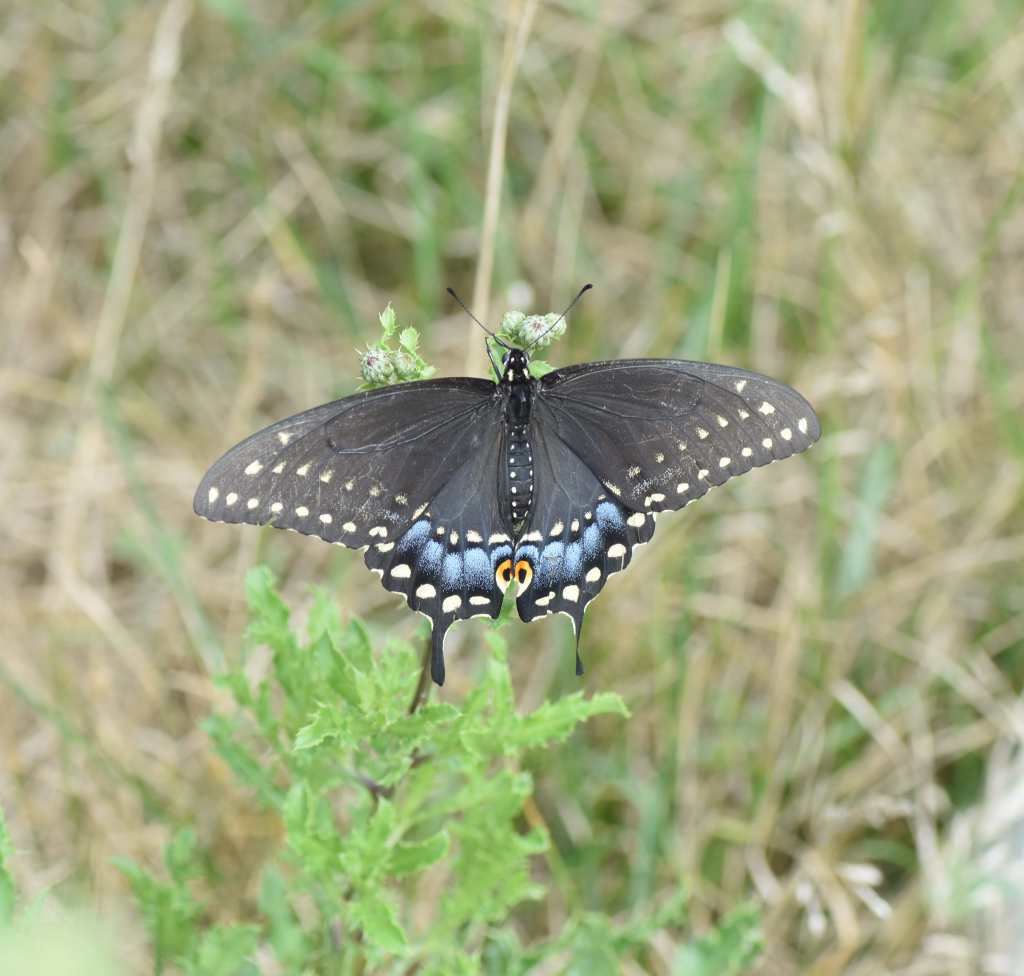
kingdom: Animalia
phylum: Arthropoda
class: Insecta
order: Lepidoptera
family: Papilionidae
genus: Papilio
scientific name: Papilio polyxenes
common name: Black swallowtail
